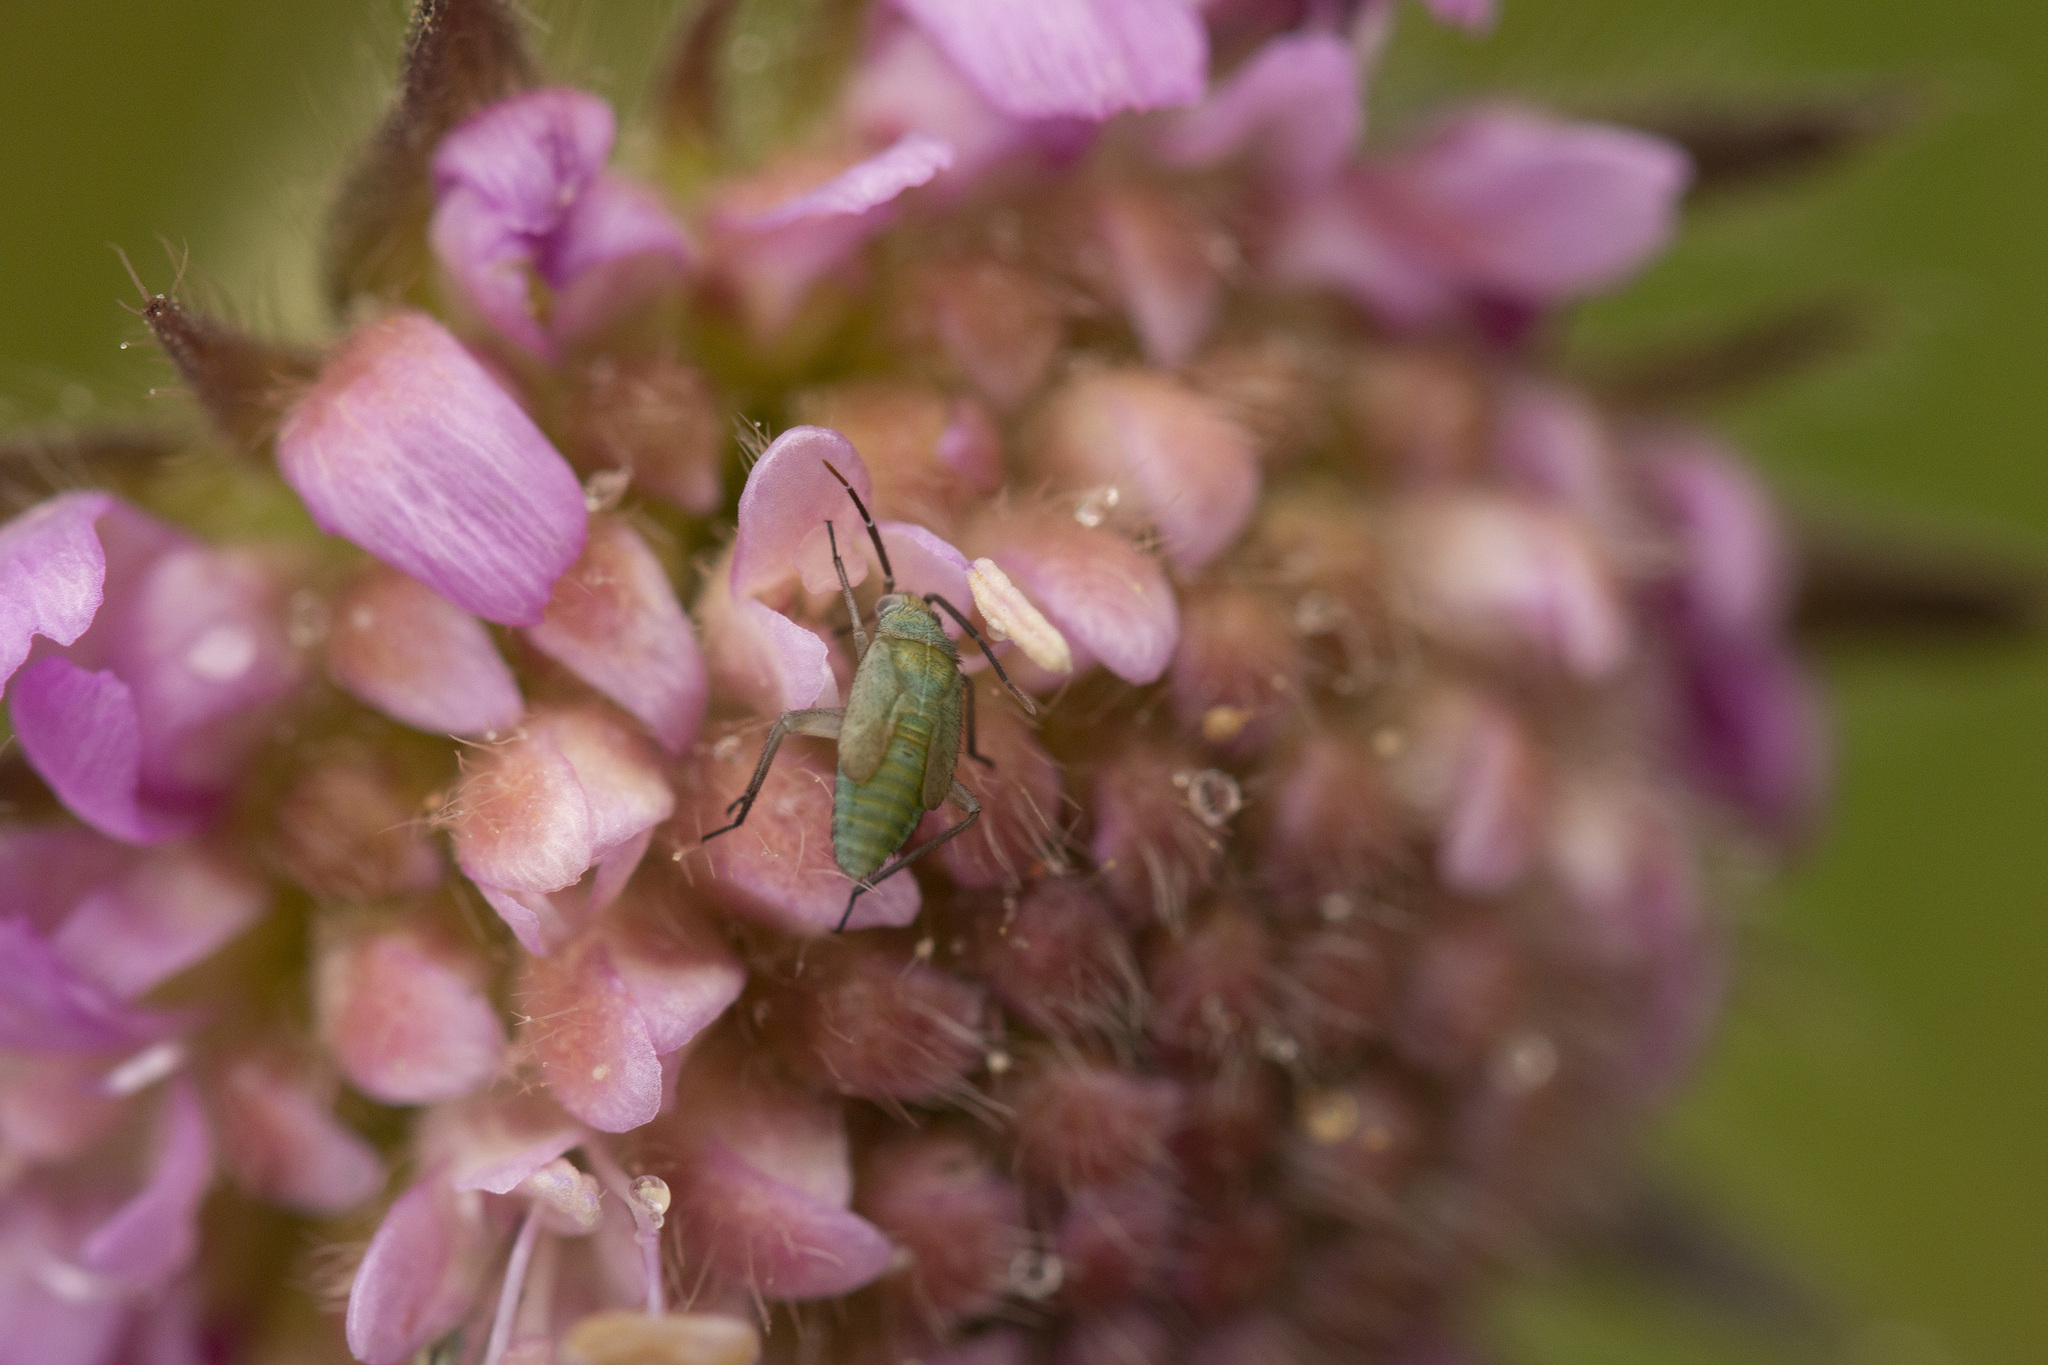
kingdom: Animalia
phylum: Arthropoda
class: Insecta
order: Hemiptera
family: Miridae
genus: Placochilus
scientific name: Placochilus seladonicus
